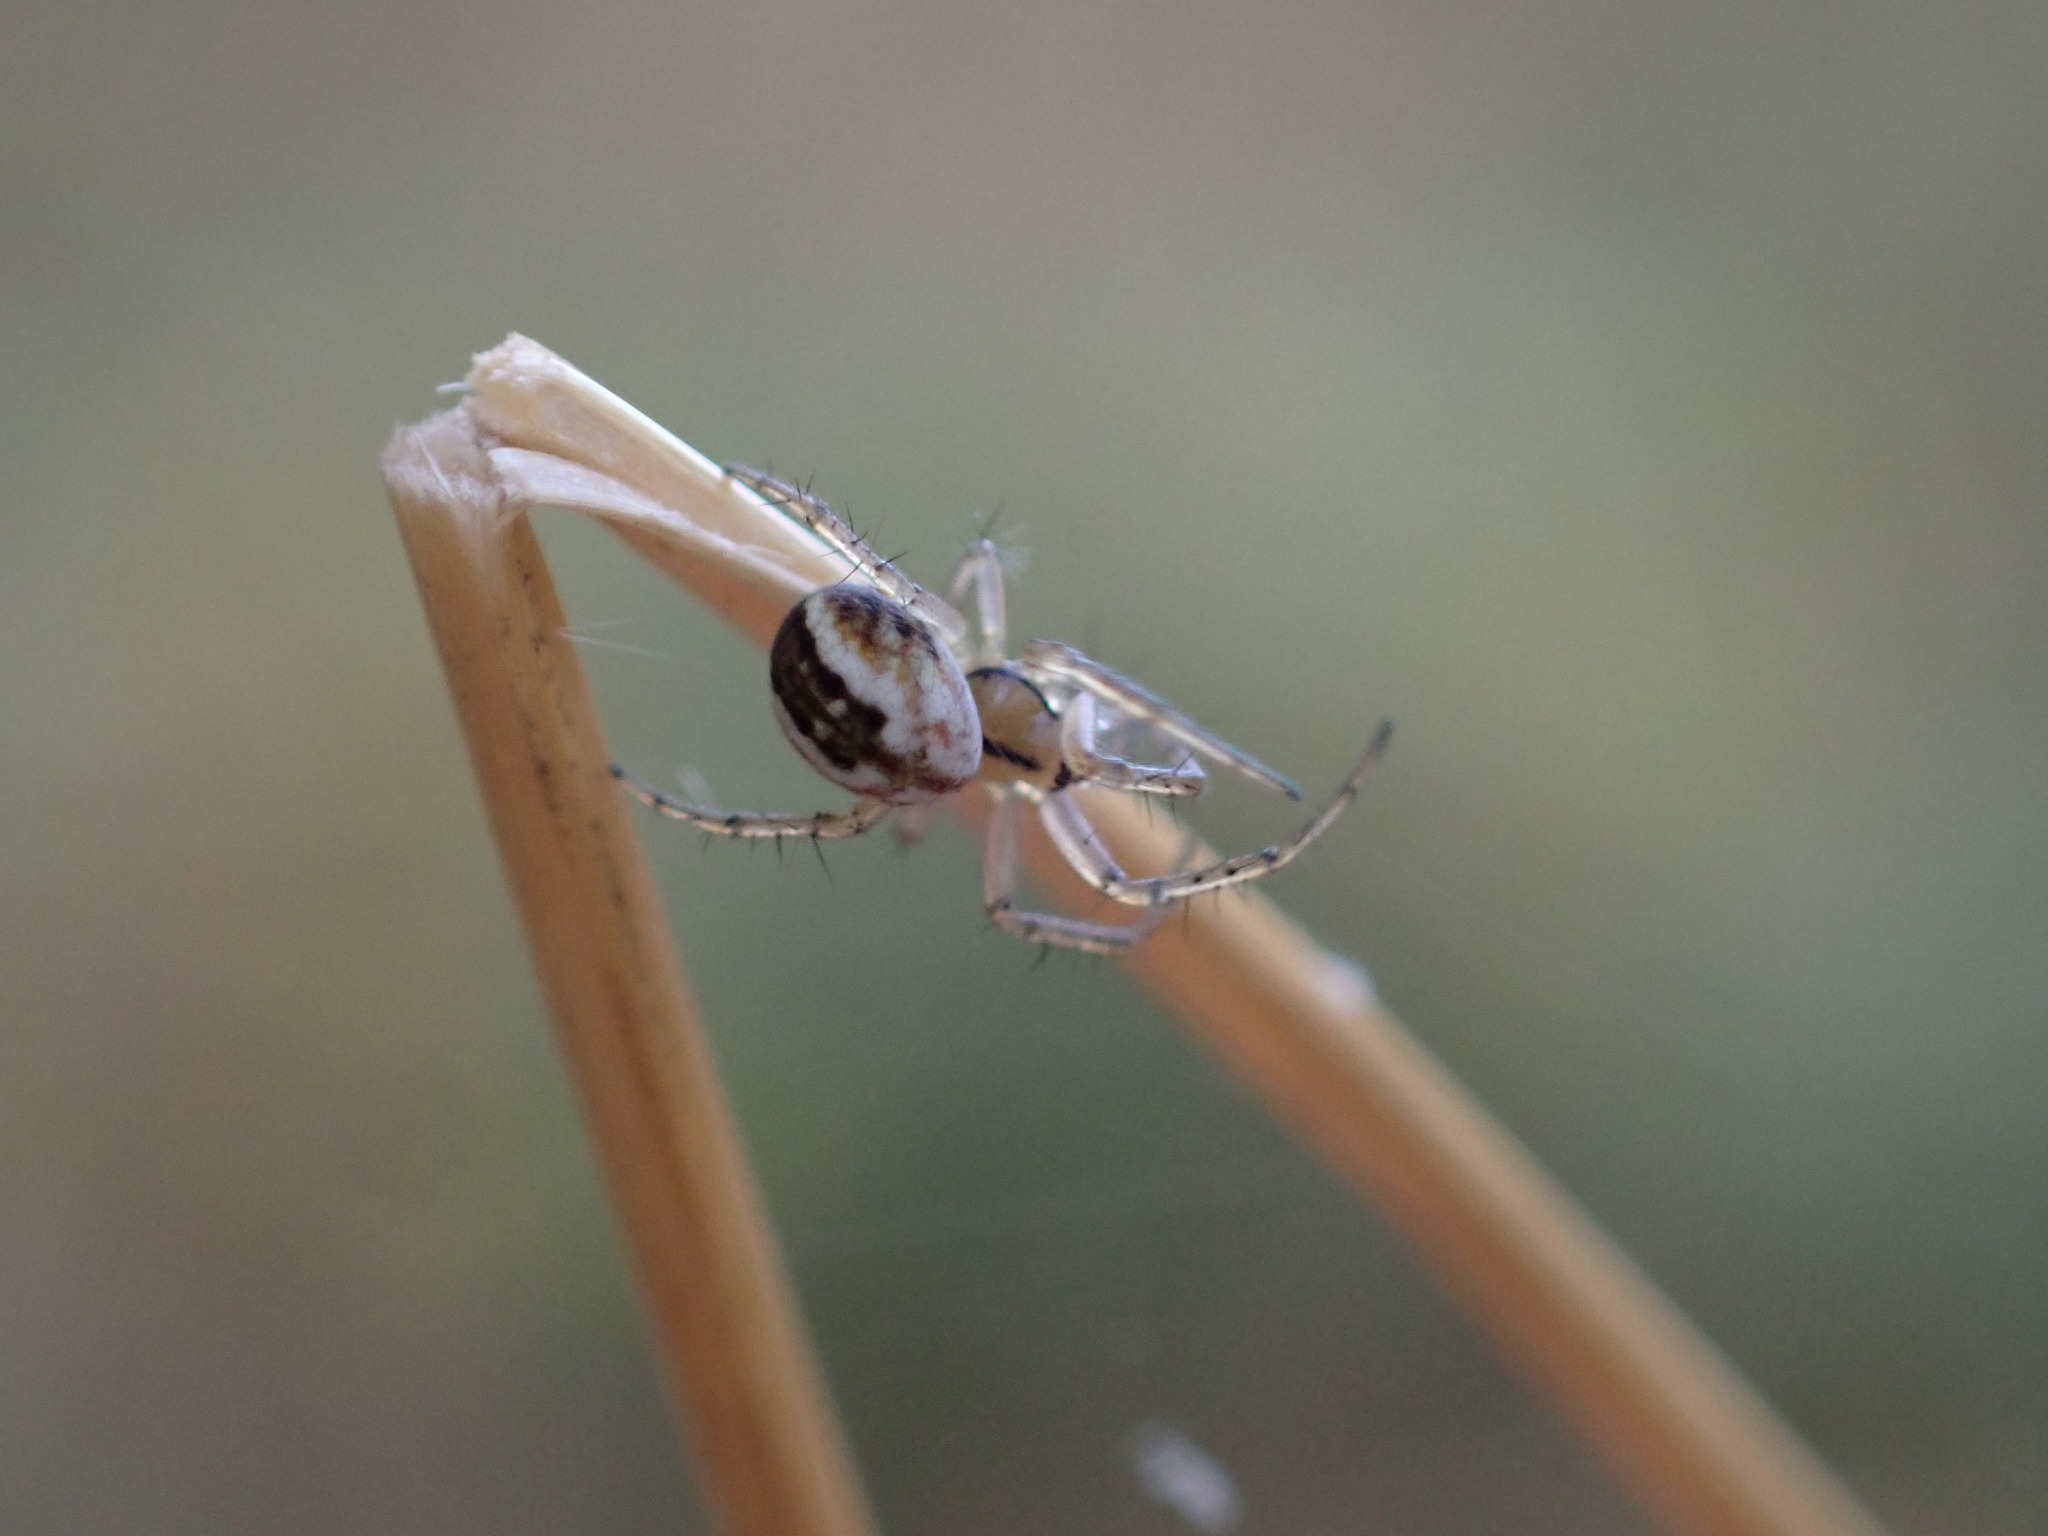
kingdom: Animalia
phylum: Arthropoda
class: Arachnida
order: Araneae
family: Araneidae
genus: Mangora
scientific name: Mangora acalypha
